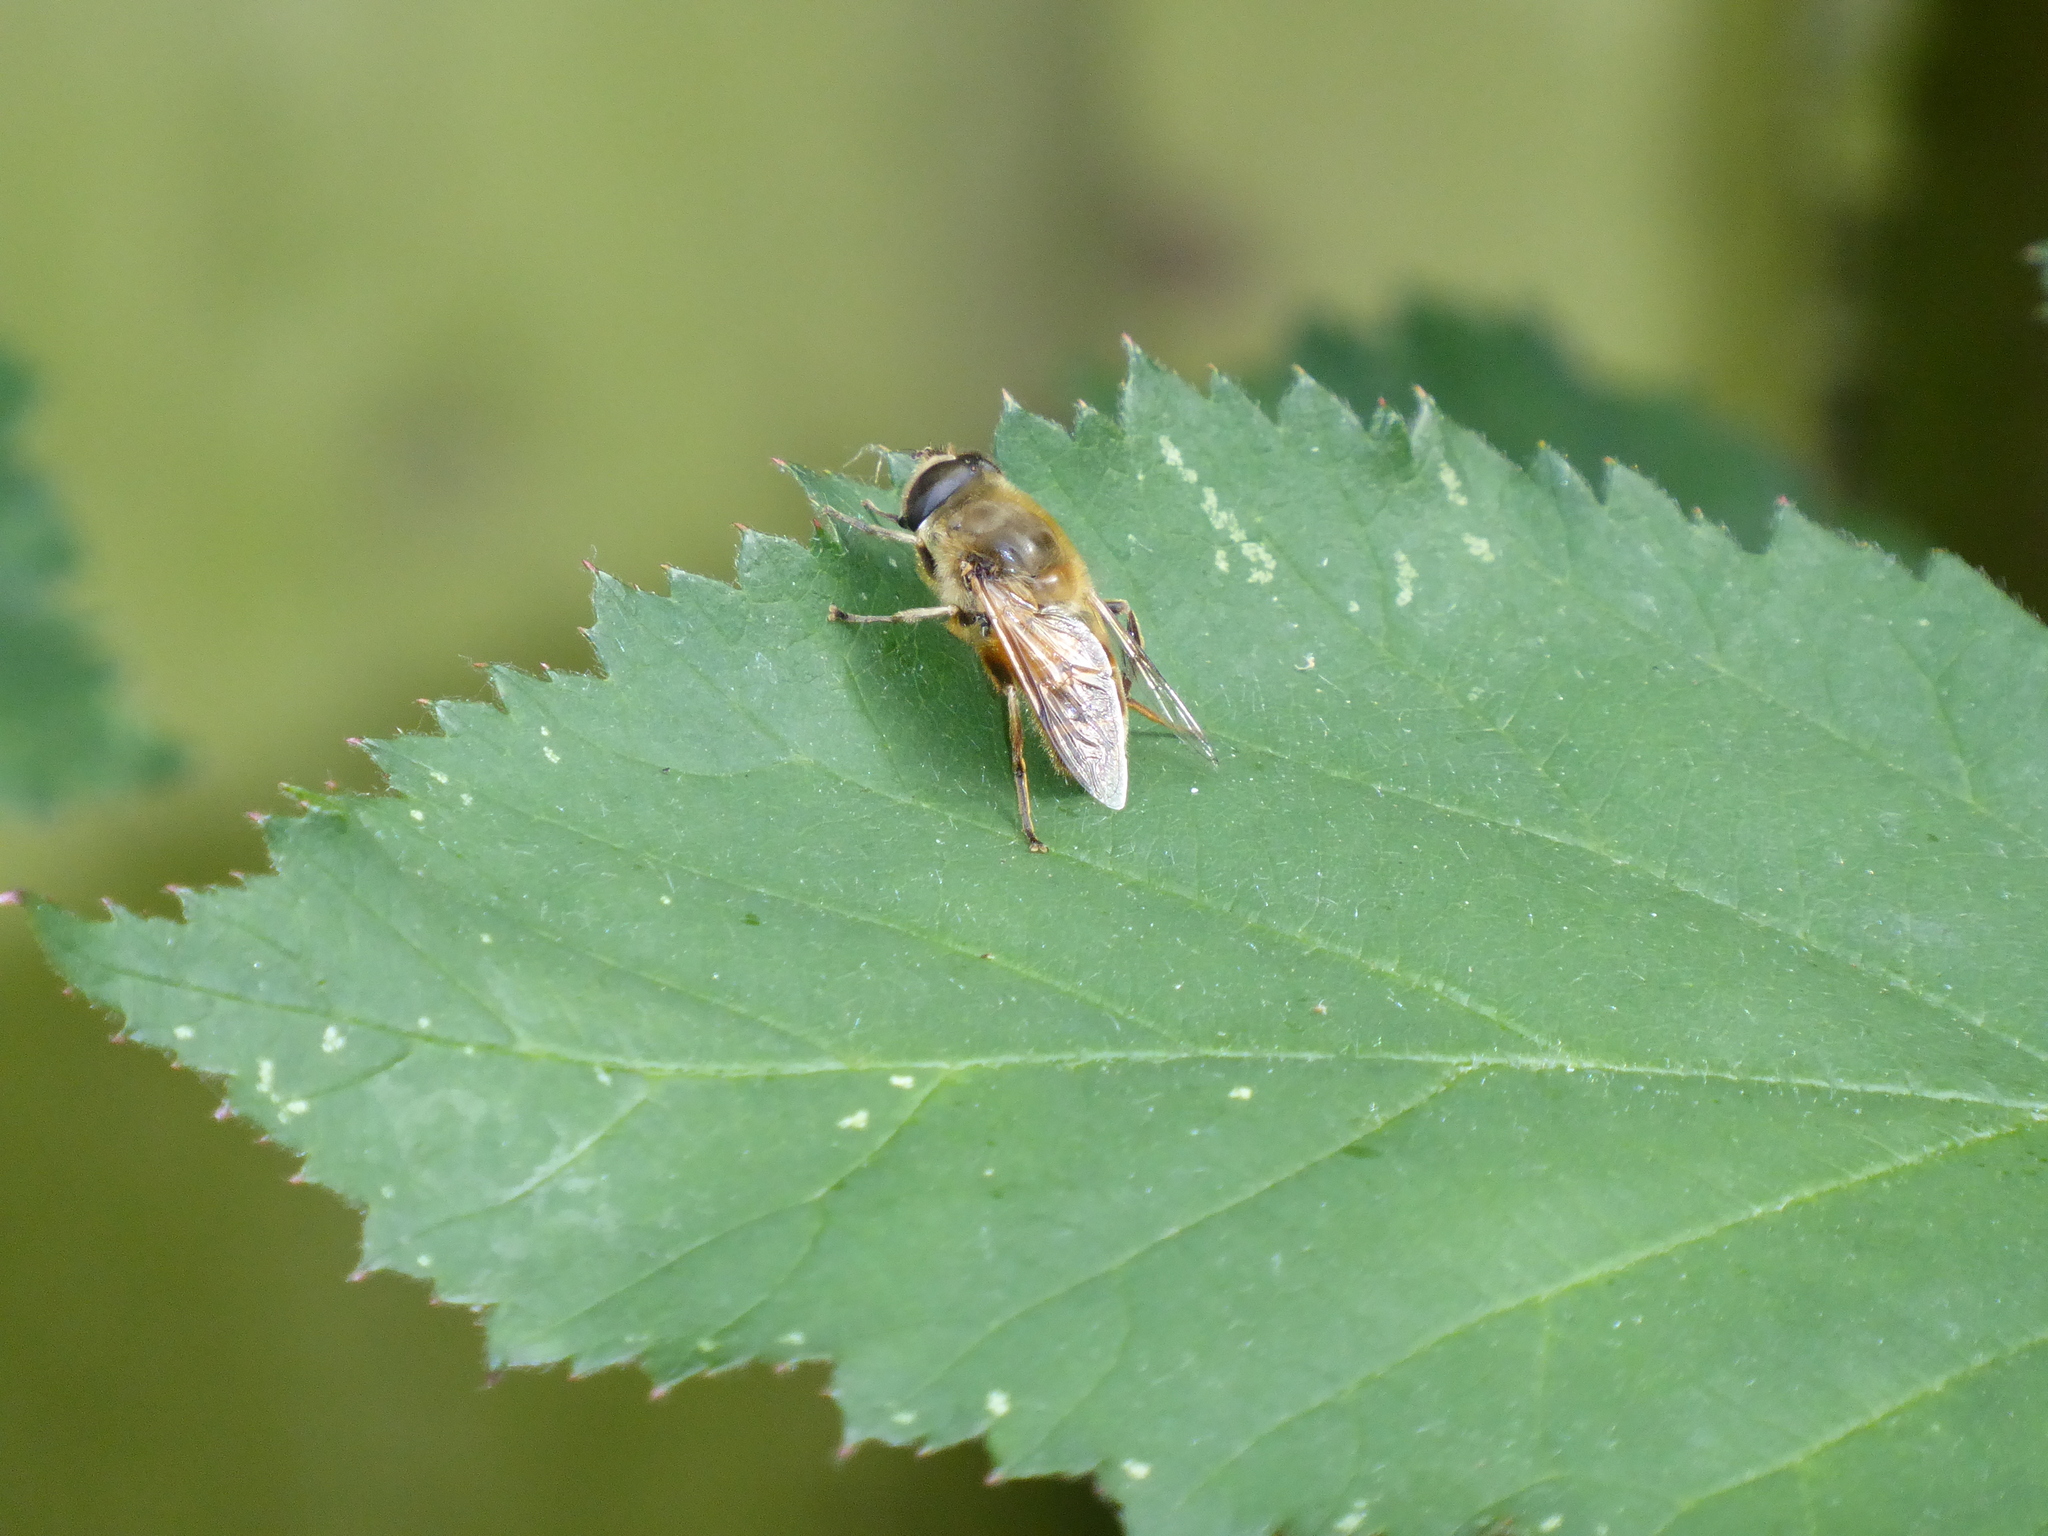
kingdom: Animalia
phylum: Arthropoda
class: Insecta
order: Diptera
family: Syrphidae
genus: Eristalis
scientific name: Eristalis tenax
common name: Drone fly
